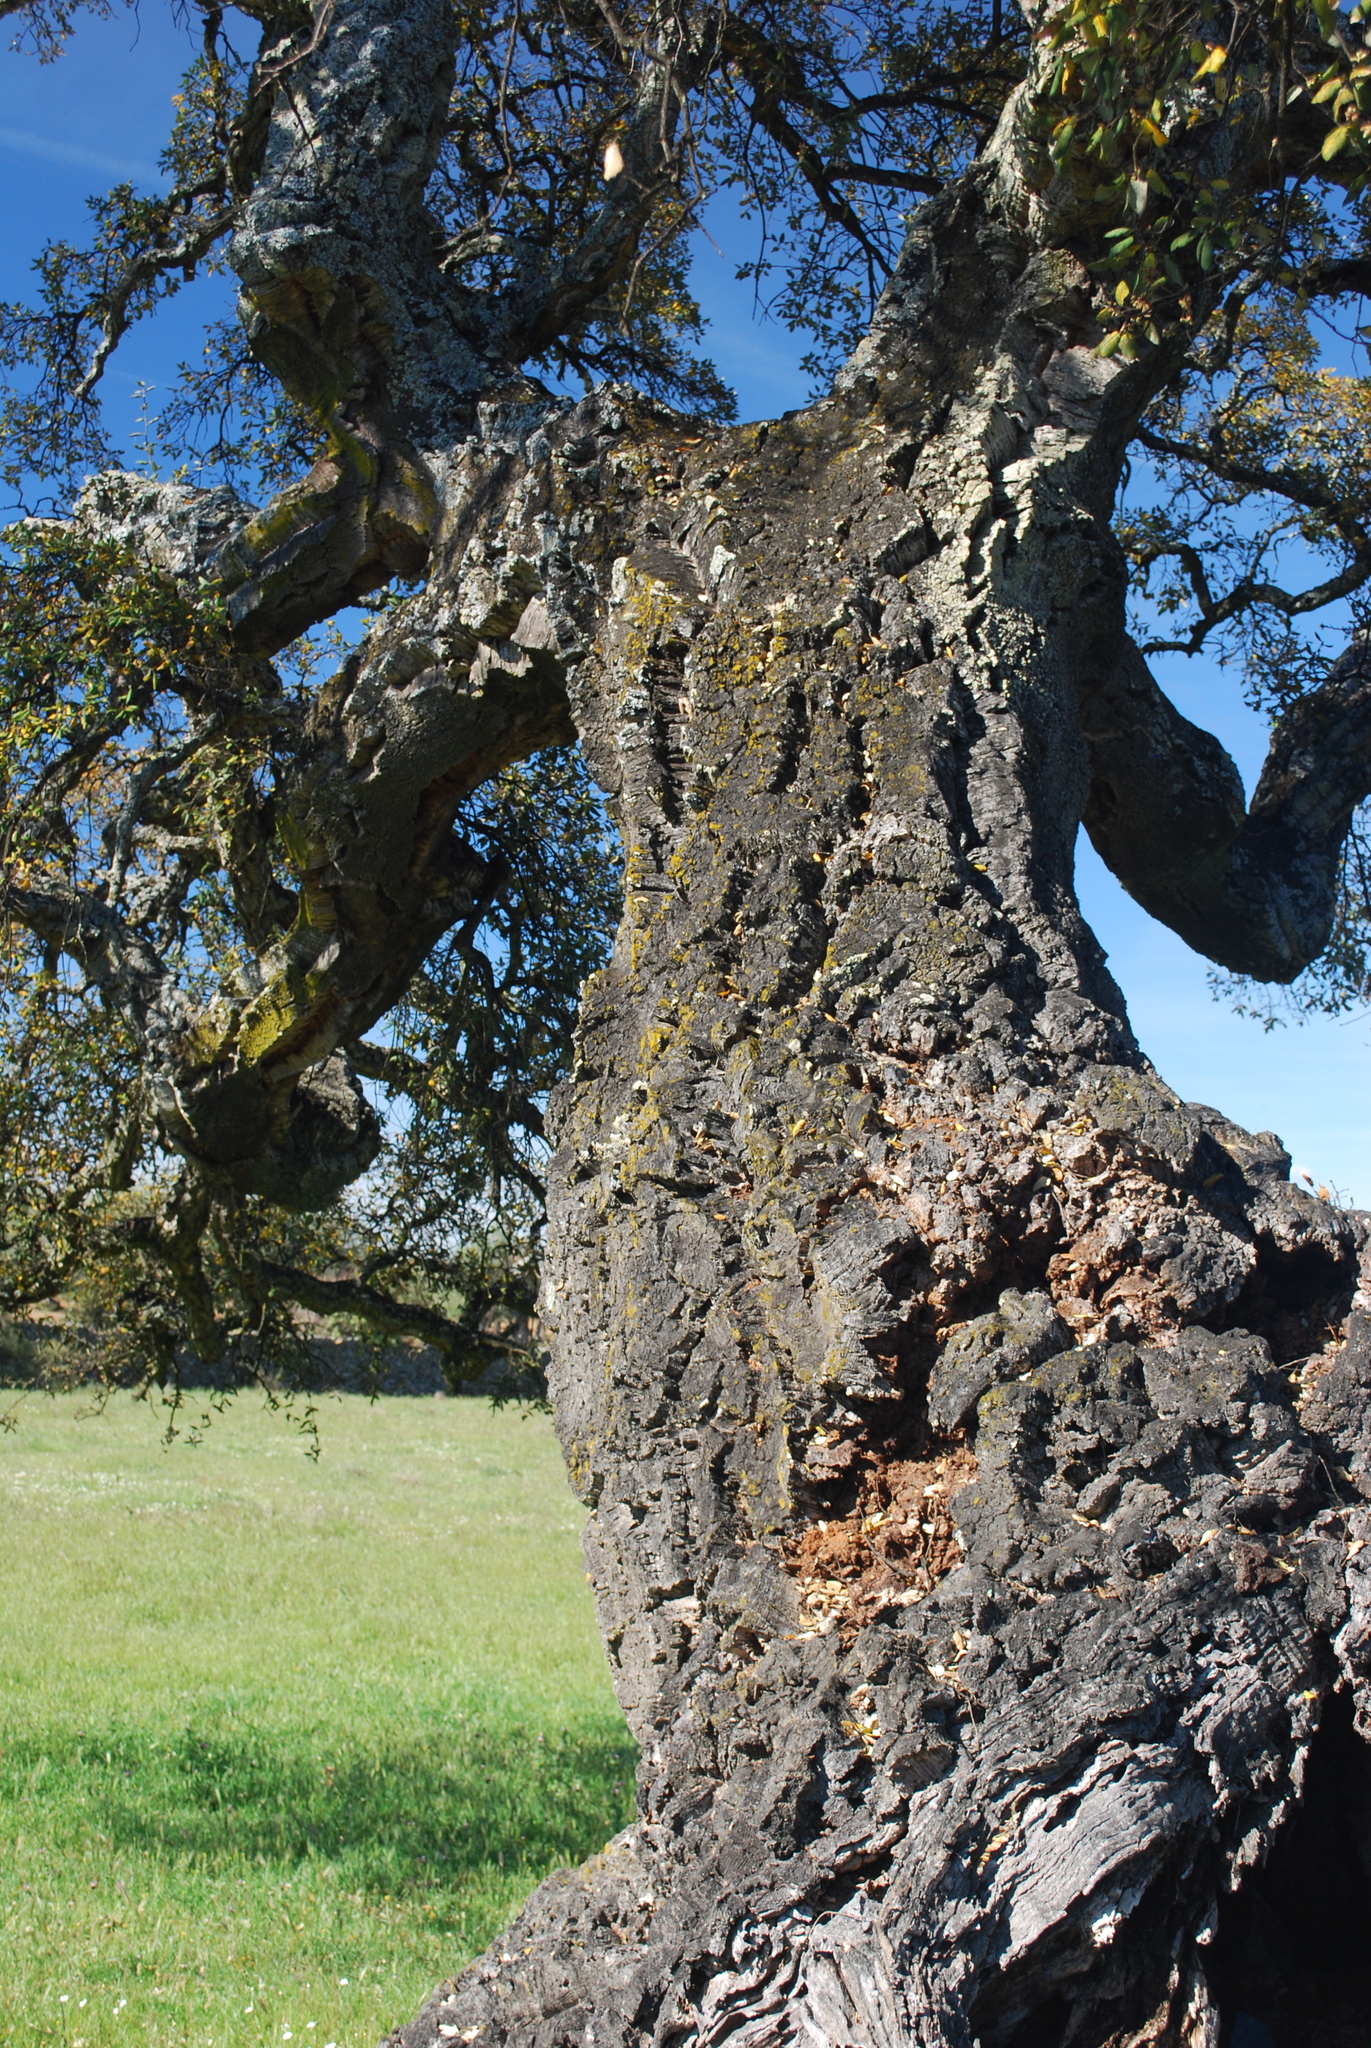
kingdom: Plantae
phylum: Tracheophyta
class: Magnoliopsida
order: Fagales
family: Fagaceae
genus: Quercus
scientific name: Quercus suber
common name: Cork oak
